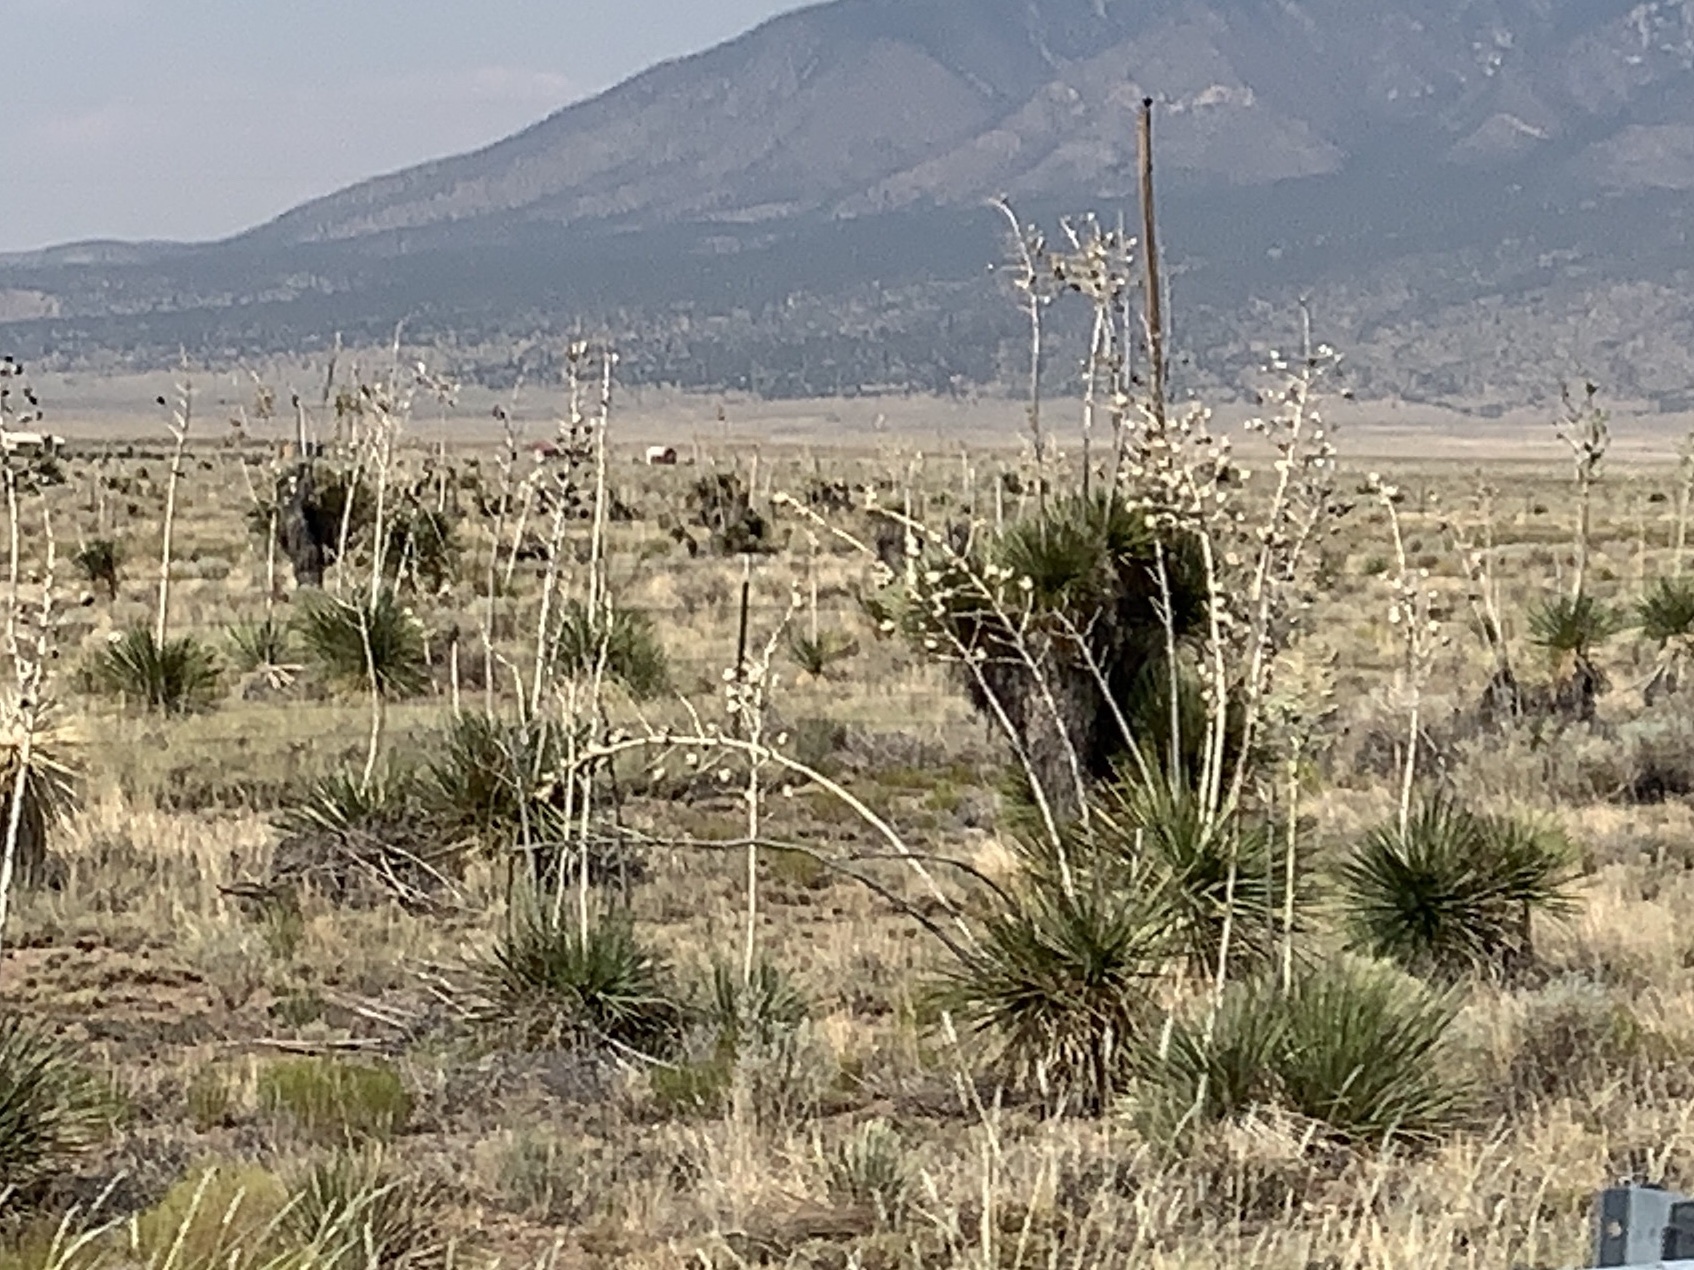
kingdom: Plantae
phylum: Tracheophyta
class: Liliopsida
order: Asparagales
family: Asparagaceae
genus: Yucca
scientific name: Yucca elata
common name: Palmella
